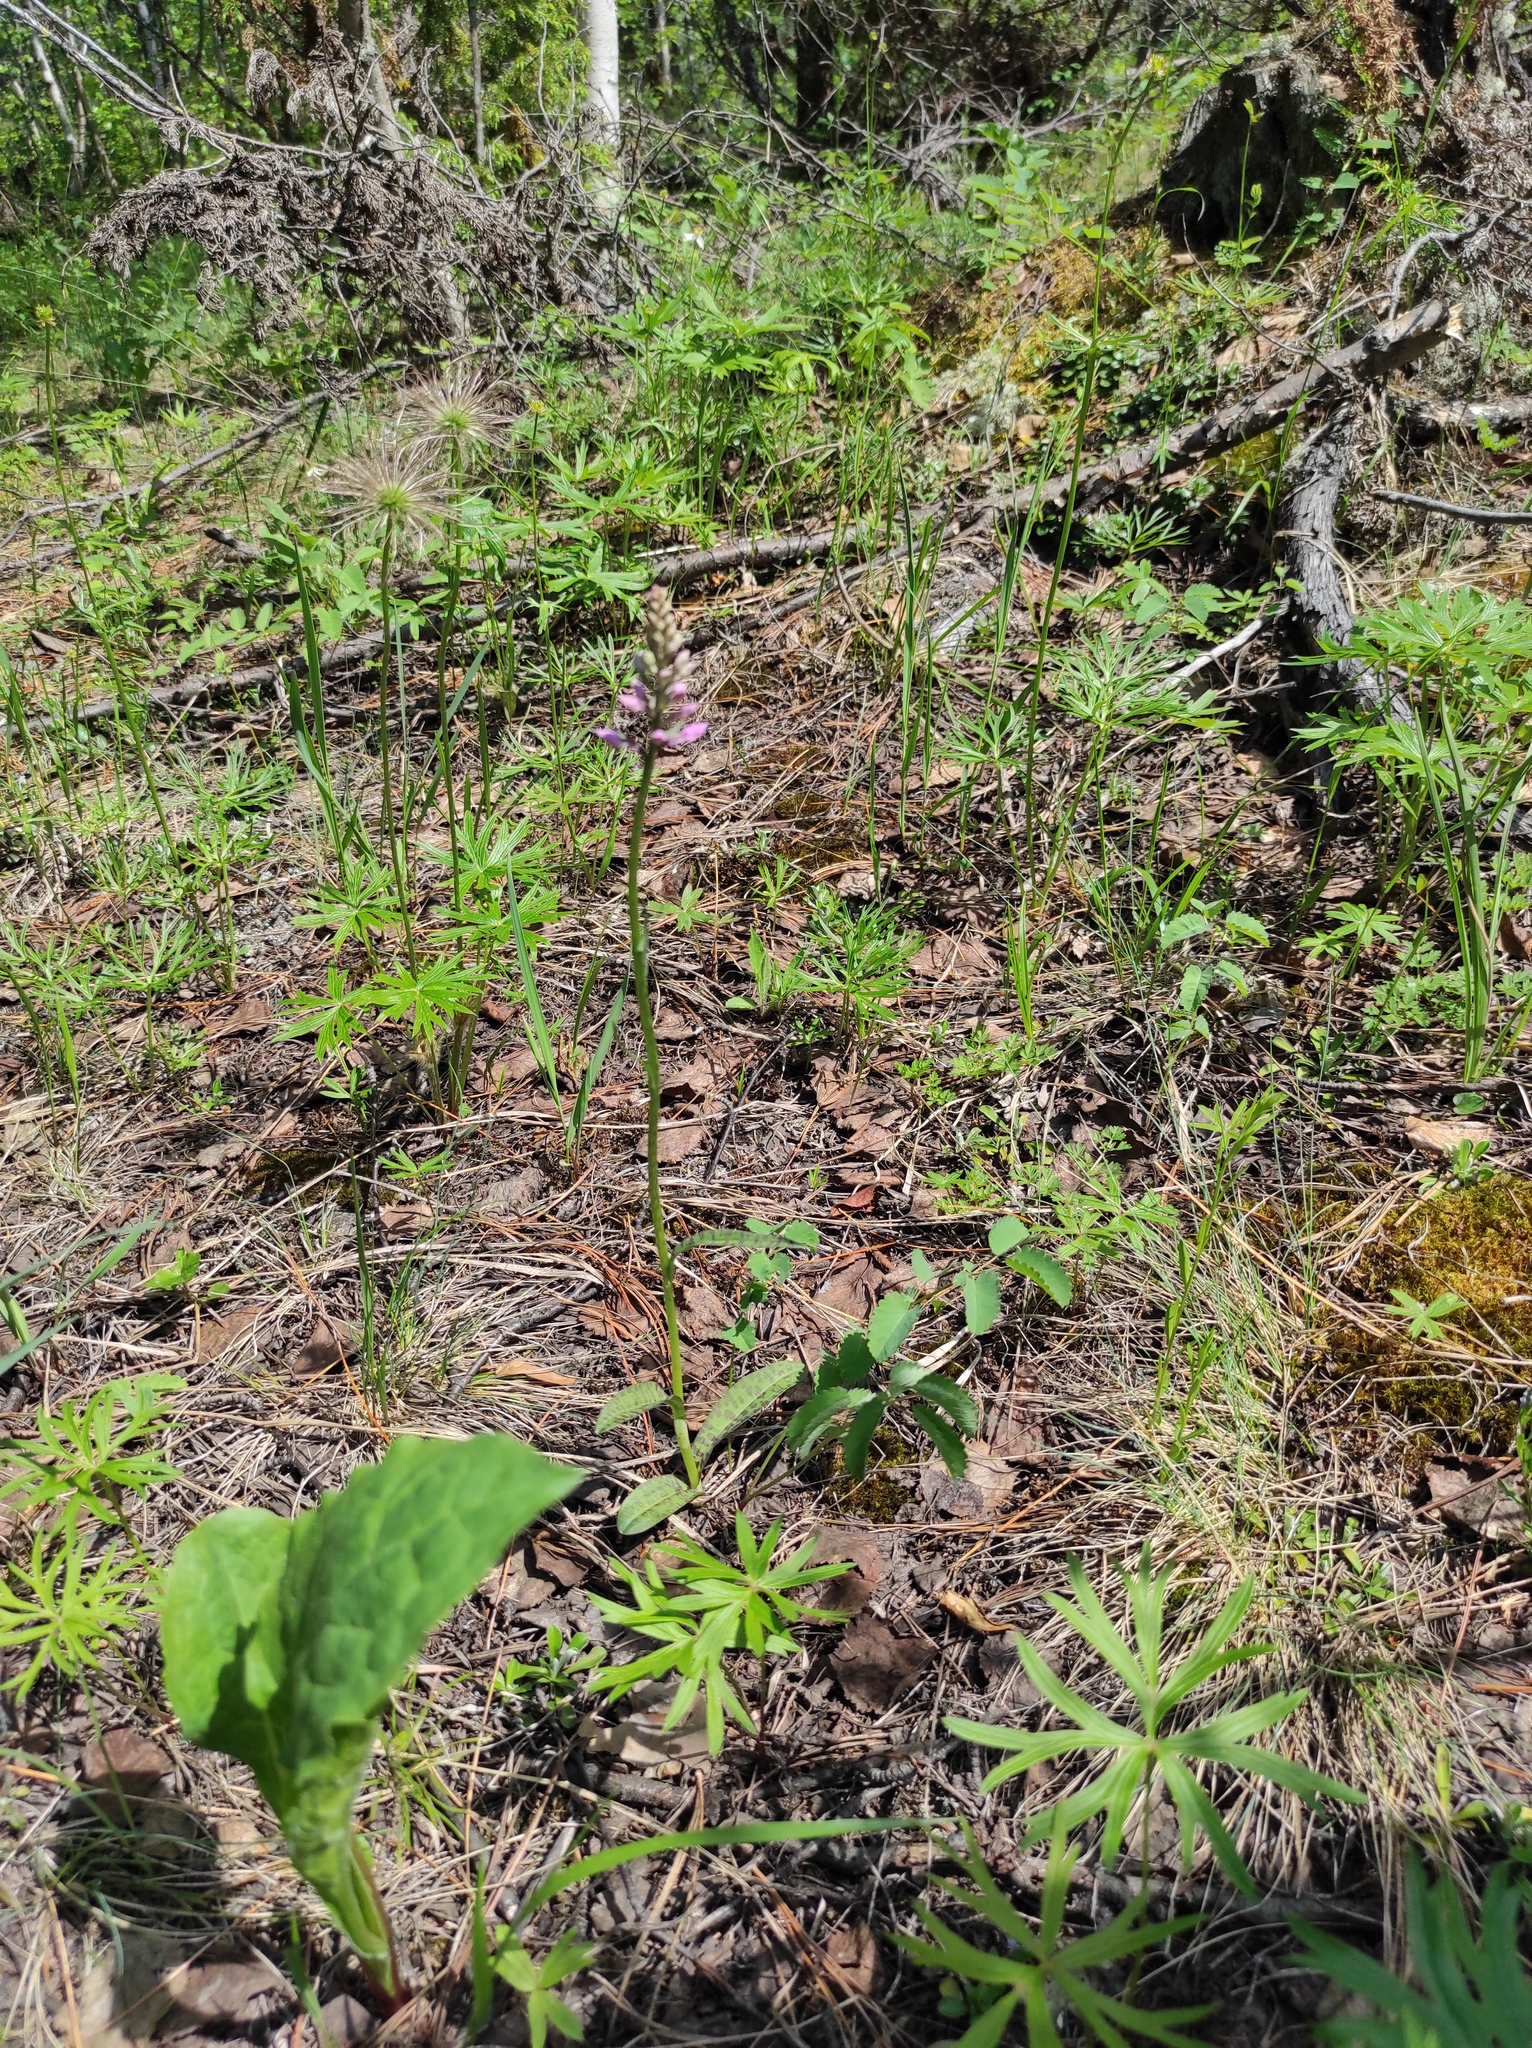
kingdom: Plantae
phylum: Tracheophyta
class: Liliopsida
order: Asparagales
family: Orchidaceae
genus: Dactylorhiza
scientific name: Dactylorhiza maculata
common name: Heath spotted-orchid
